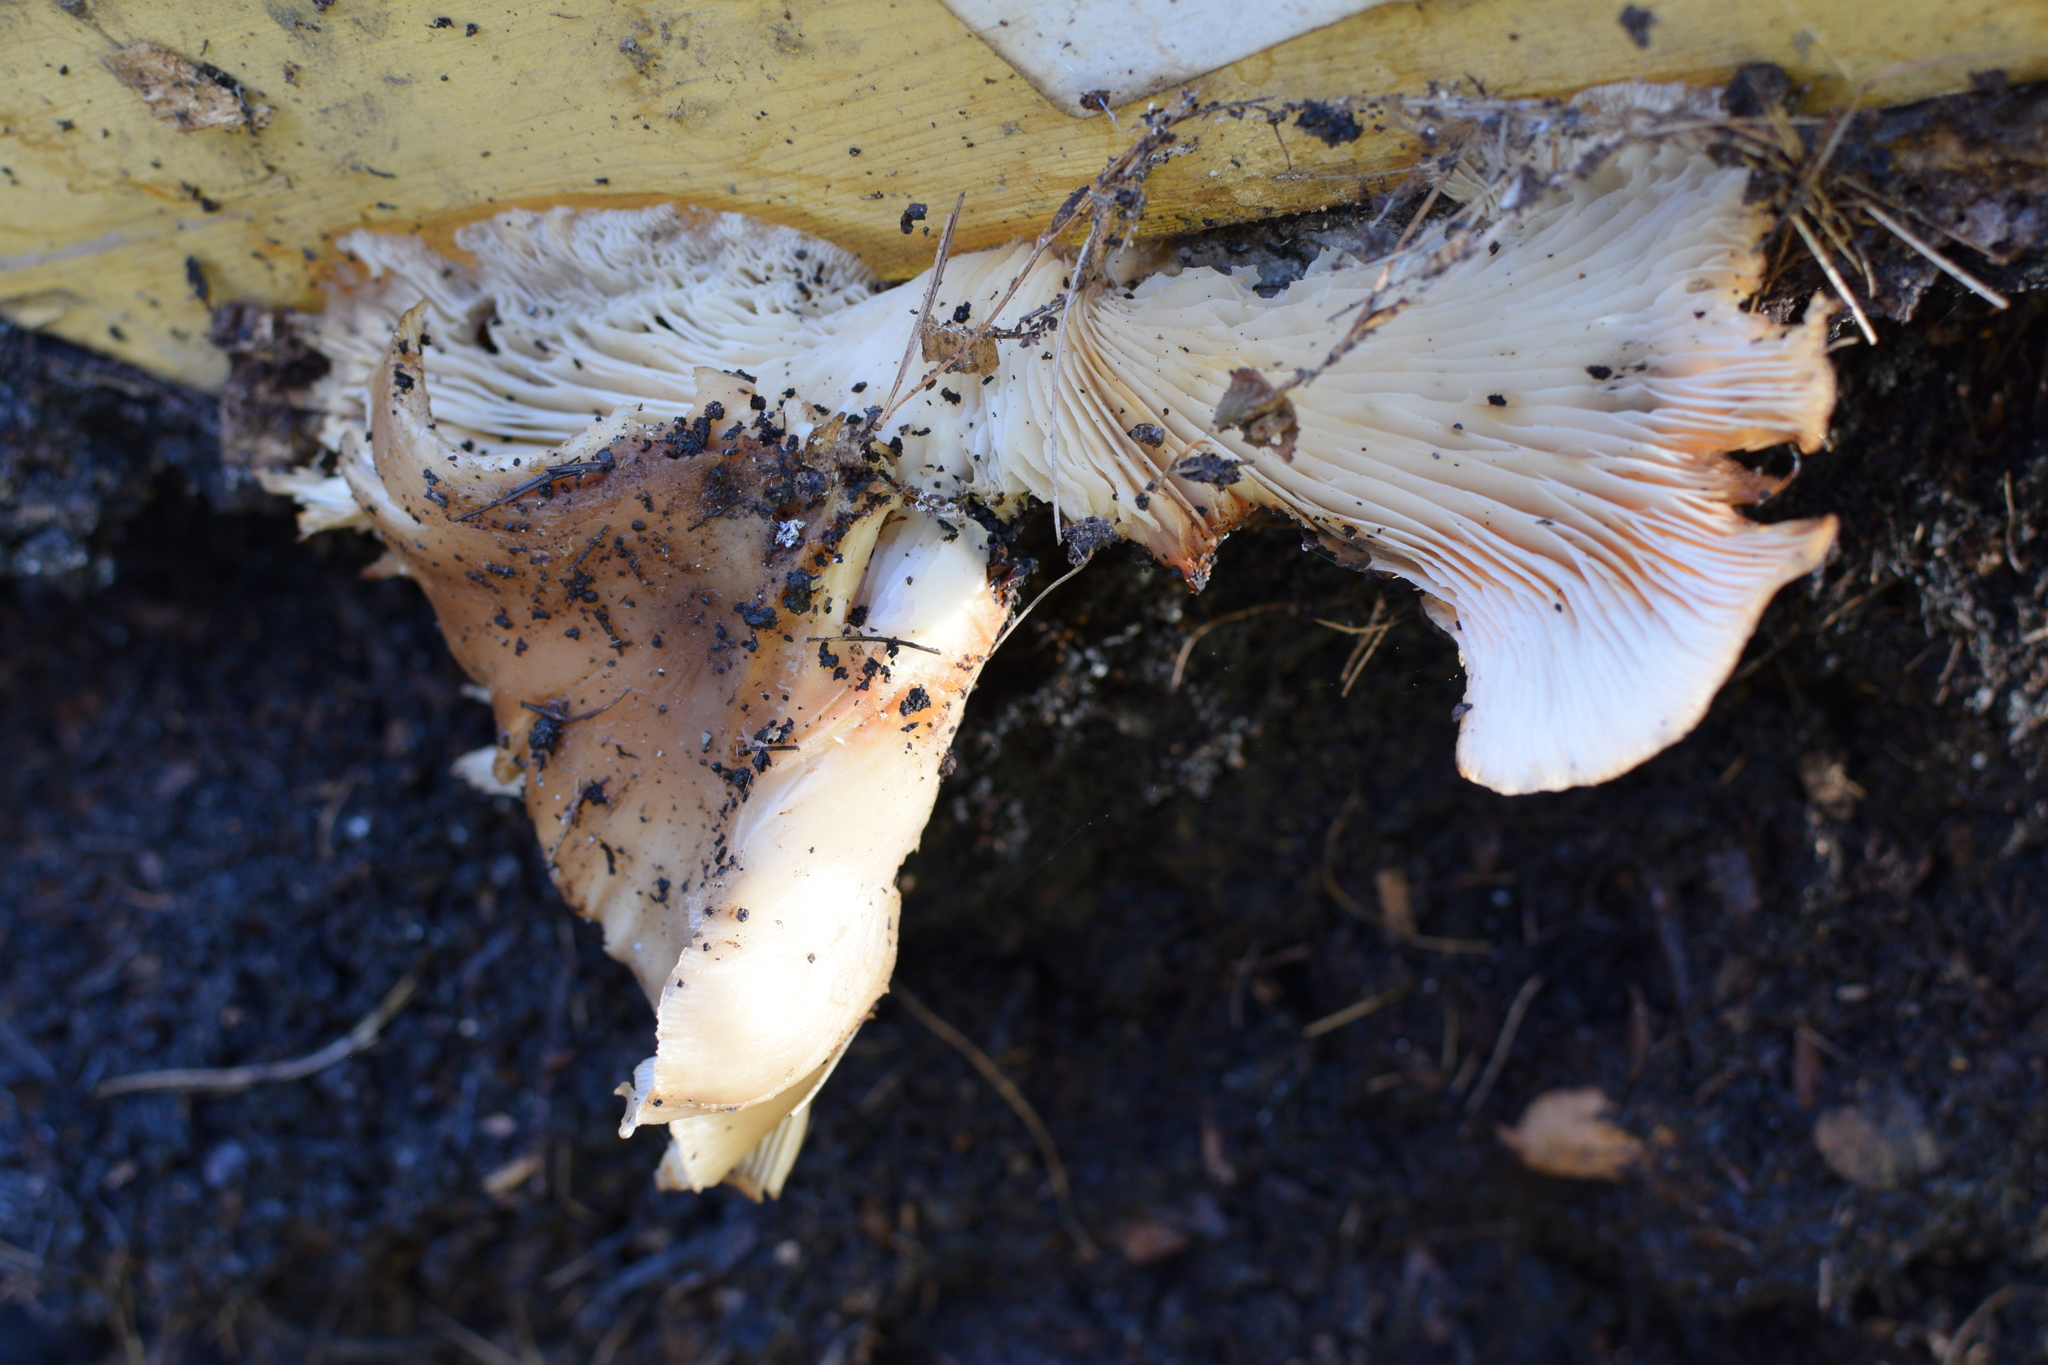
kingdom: Fungi
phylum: Basidiomycota
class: Agaricomycetes
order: Agaricales
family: Pleurotaceae
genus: Pleurotus
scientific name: Pleurotus ostreatus
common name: Oyster mushroom
